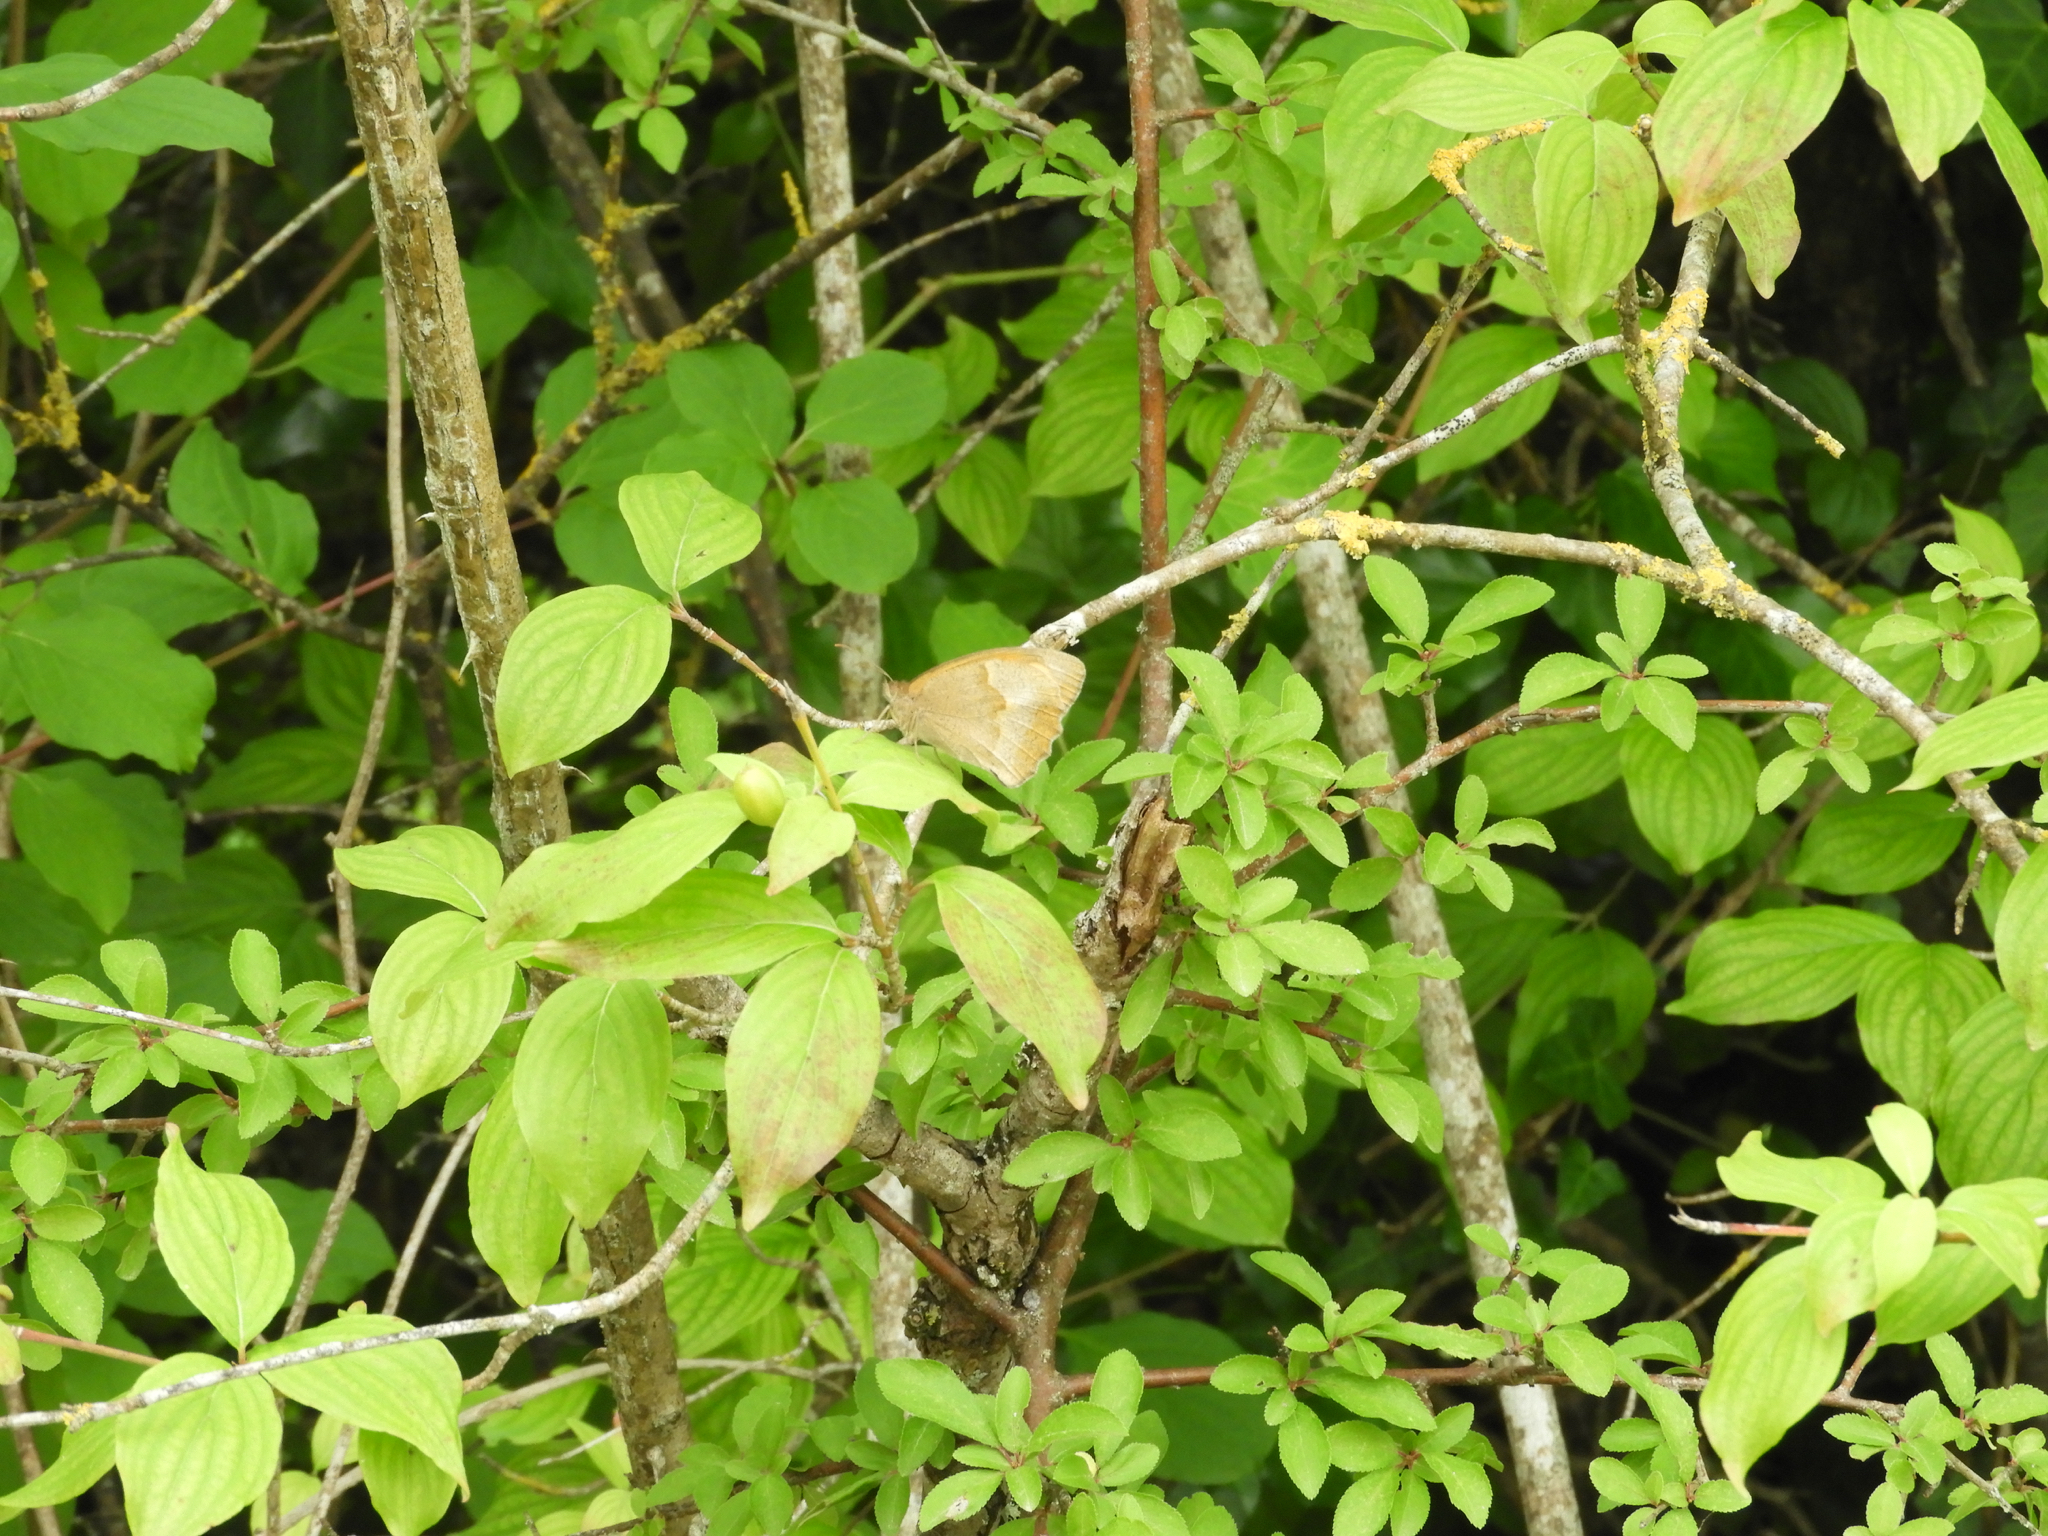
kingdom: Animalia
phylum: Arthropoda
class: Insecta
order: Lepidoptera
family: Nymphalidae
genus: Maniola
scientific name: Maniola jurtina
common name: Meadow brown
